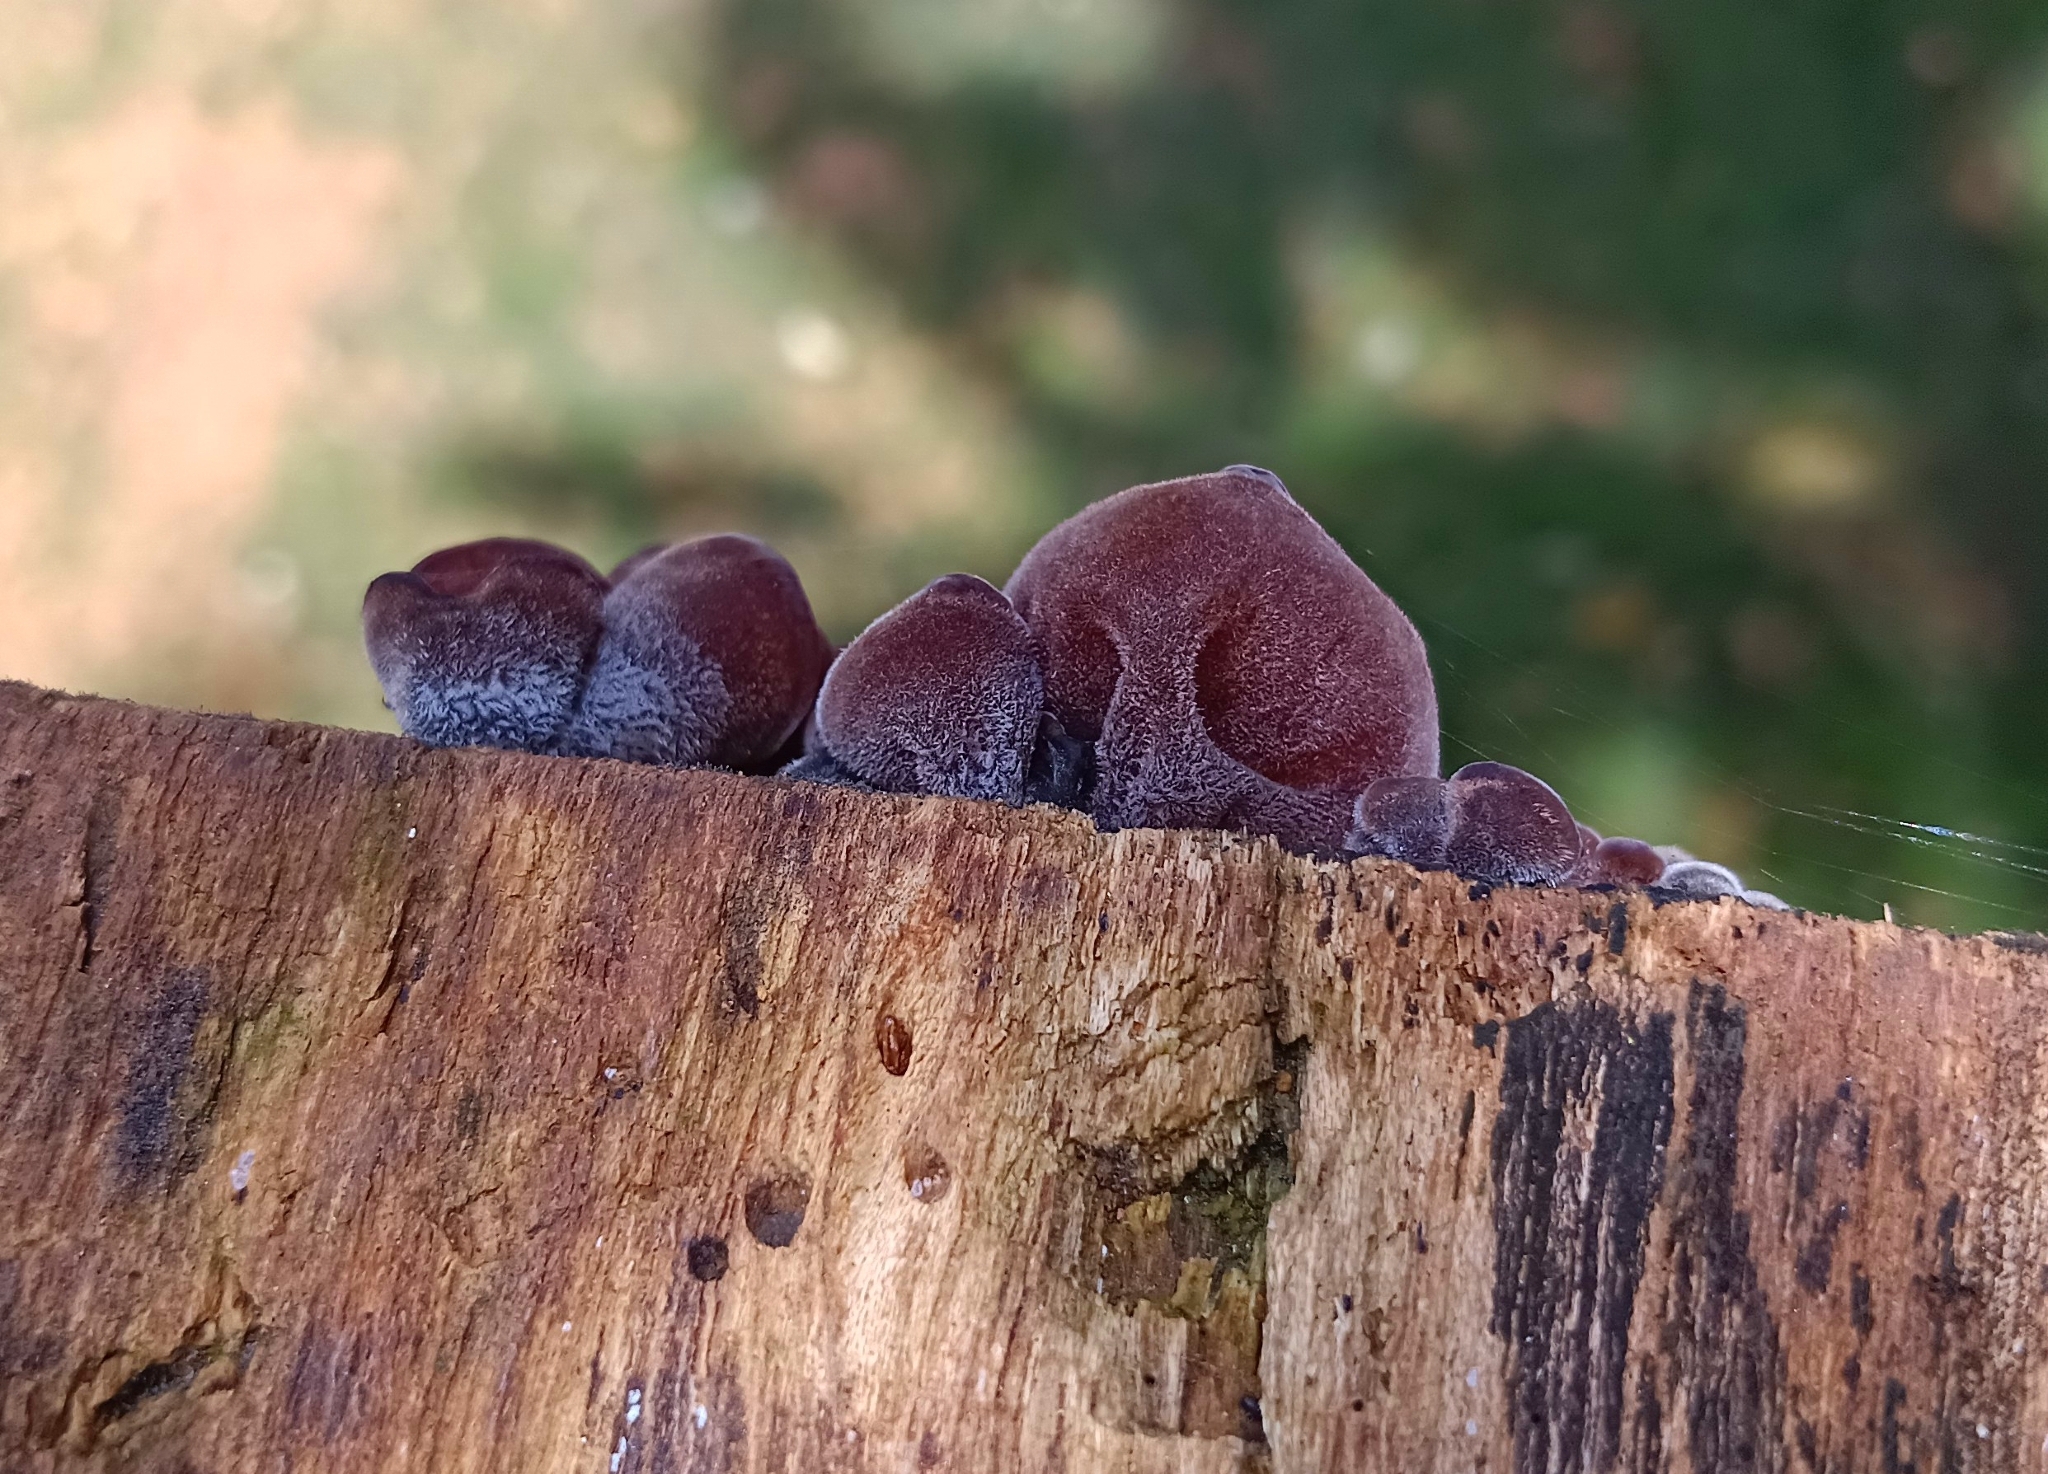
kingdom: Fungi
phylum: Basidiomycota
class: Agaricomycetes
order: Auriculariales
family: Auriculariaceae
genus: Auricularia
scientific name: Auricularia nigricans
